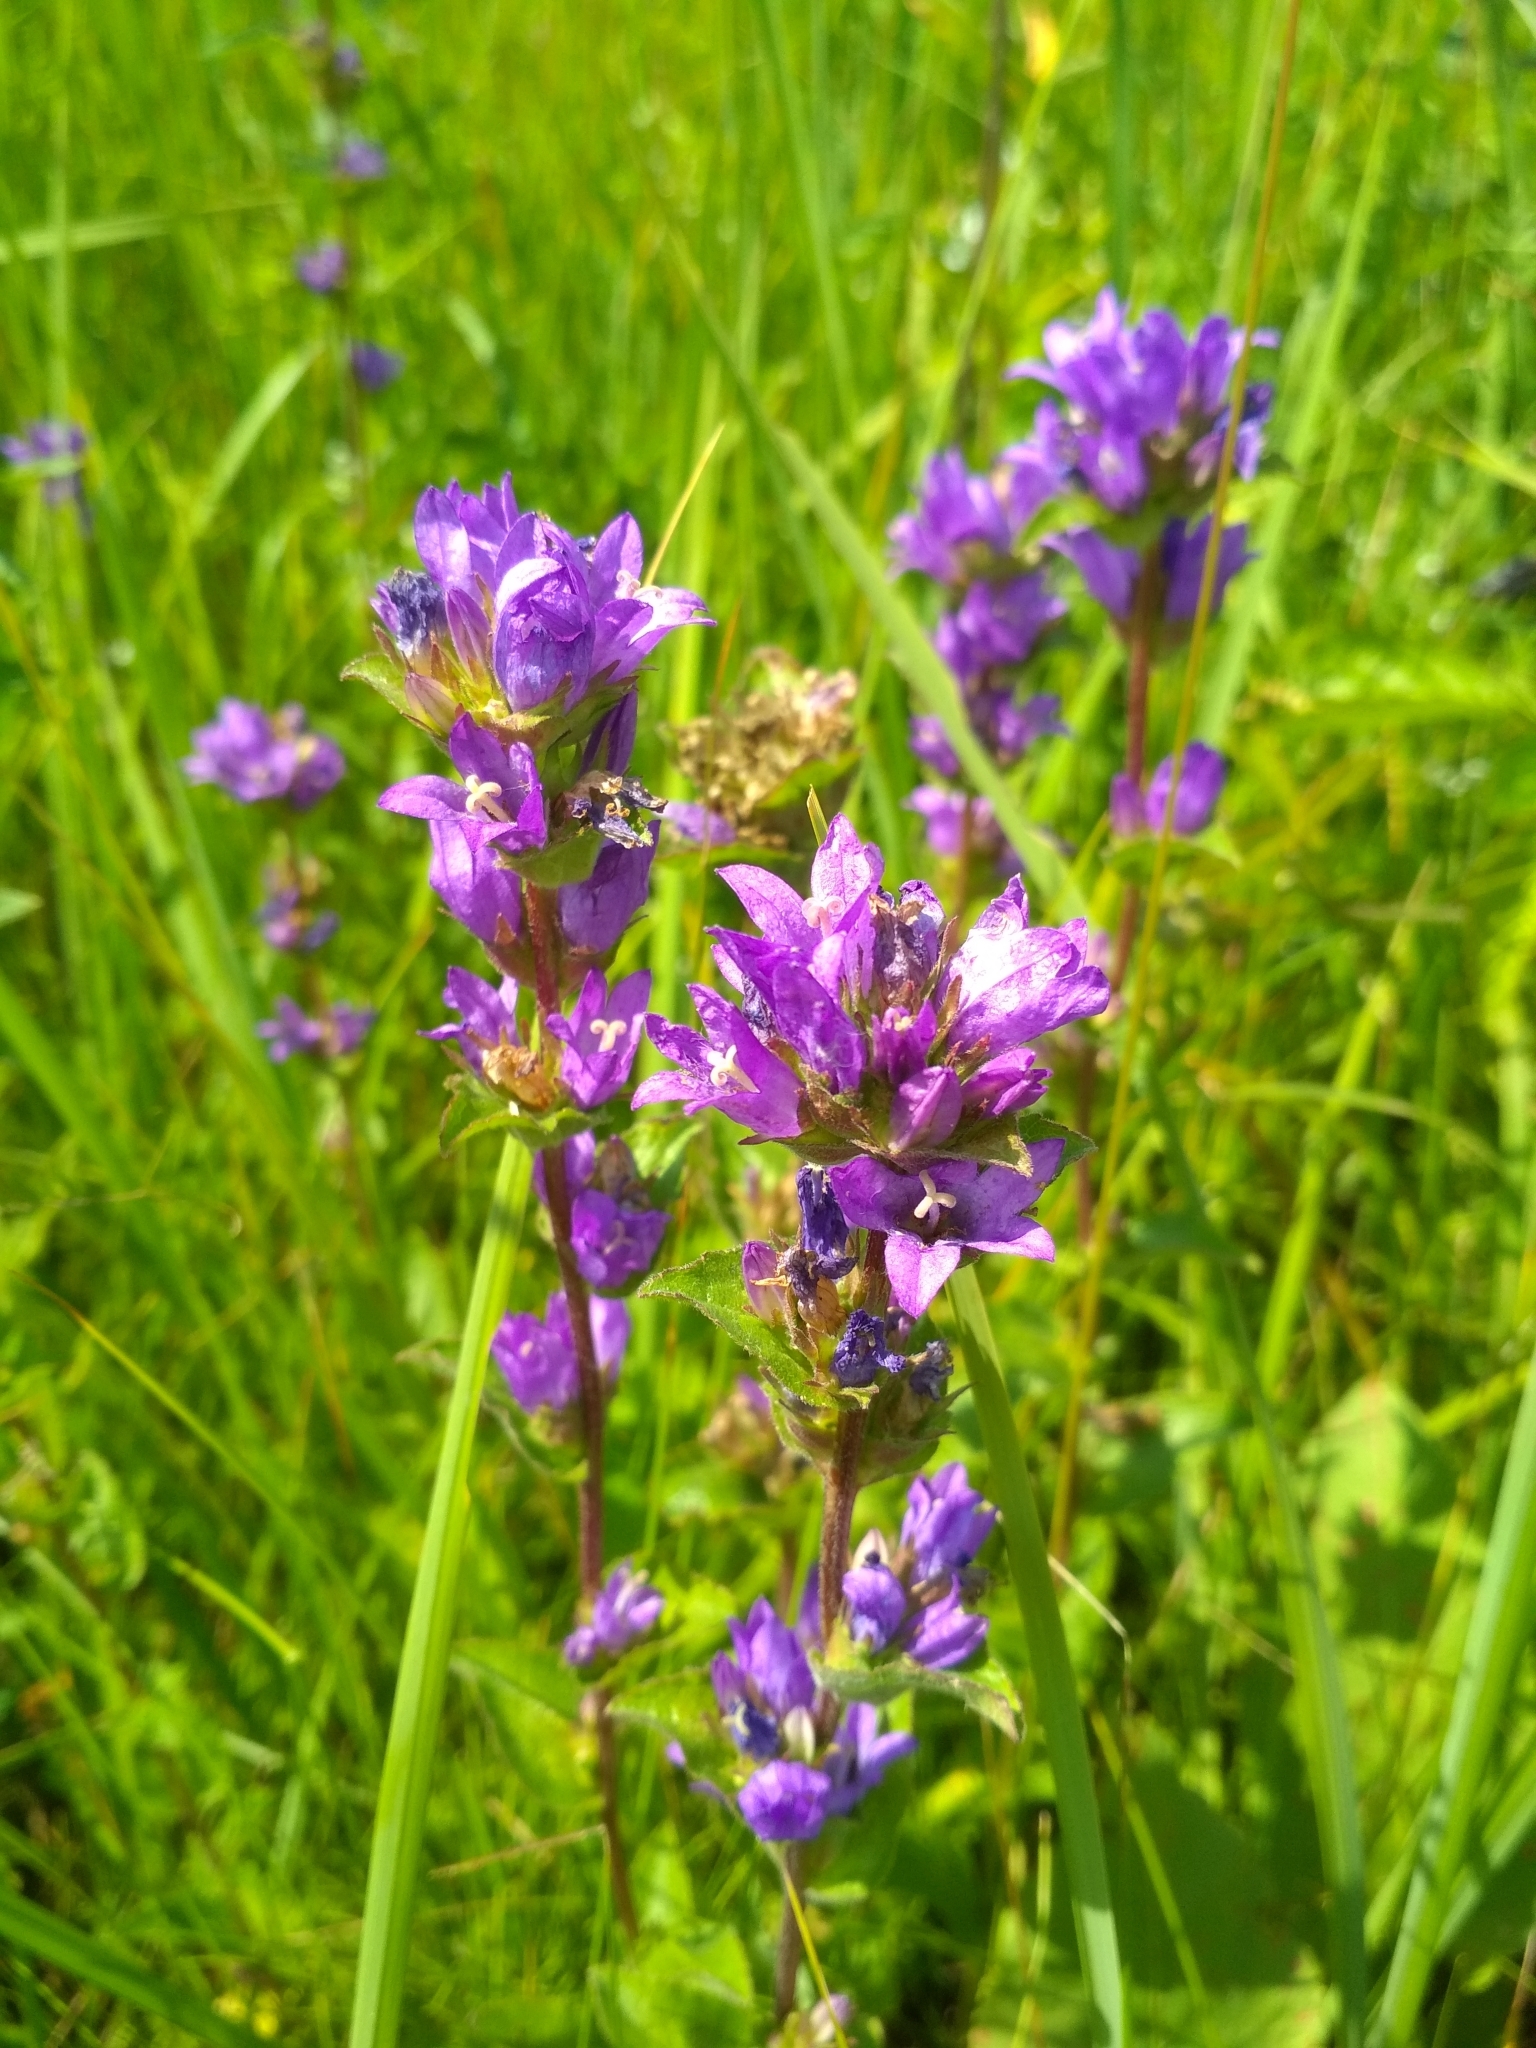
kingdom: Plantae
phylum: Tracheophyta
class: Magnoliopsida
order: Asterales
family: Campanulaceae
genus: Campanula
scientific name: Campanula glomerata
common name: Clustered bellflower
